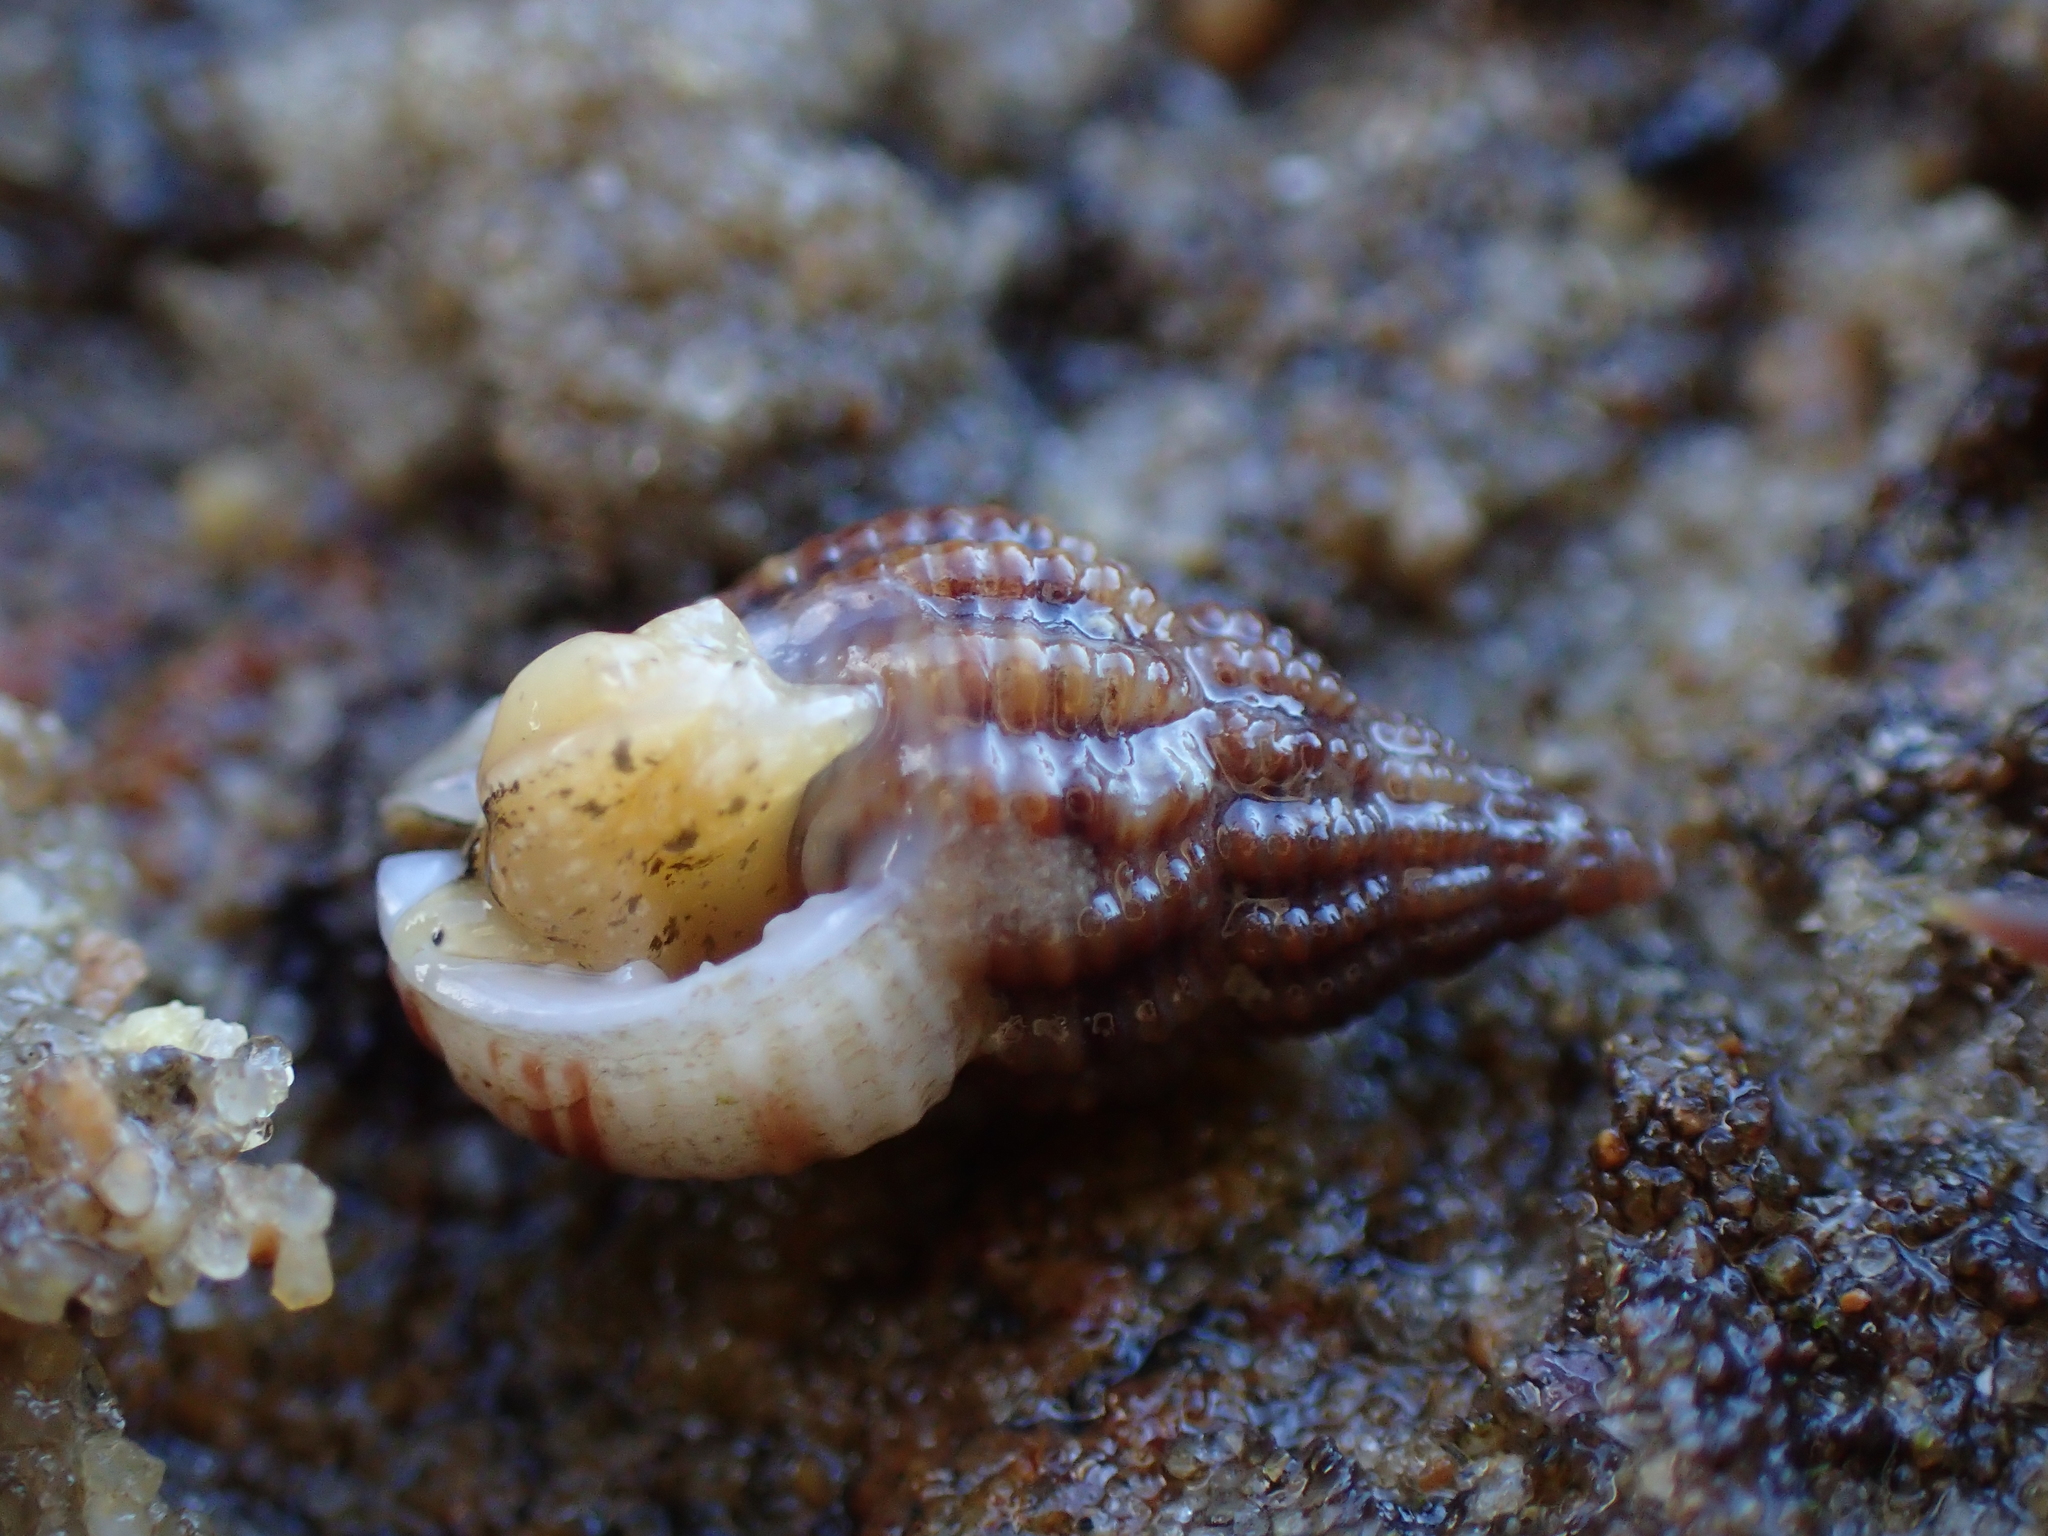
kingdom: Animalia
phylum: Mollusca
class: Gastropoda
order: Neogastropoda
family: Nassariidae
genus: Tritia
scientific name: Tritia incrassata
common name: Thick-lipped dog whelk
